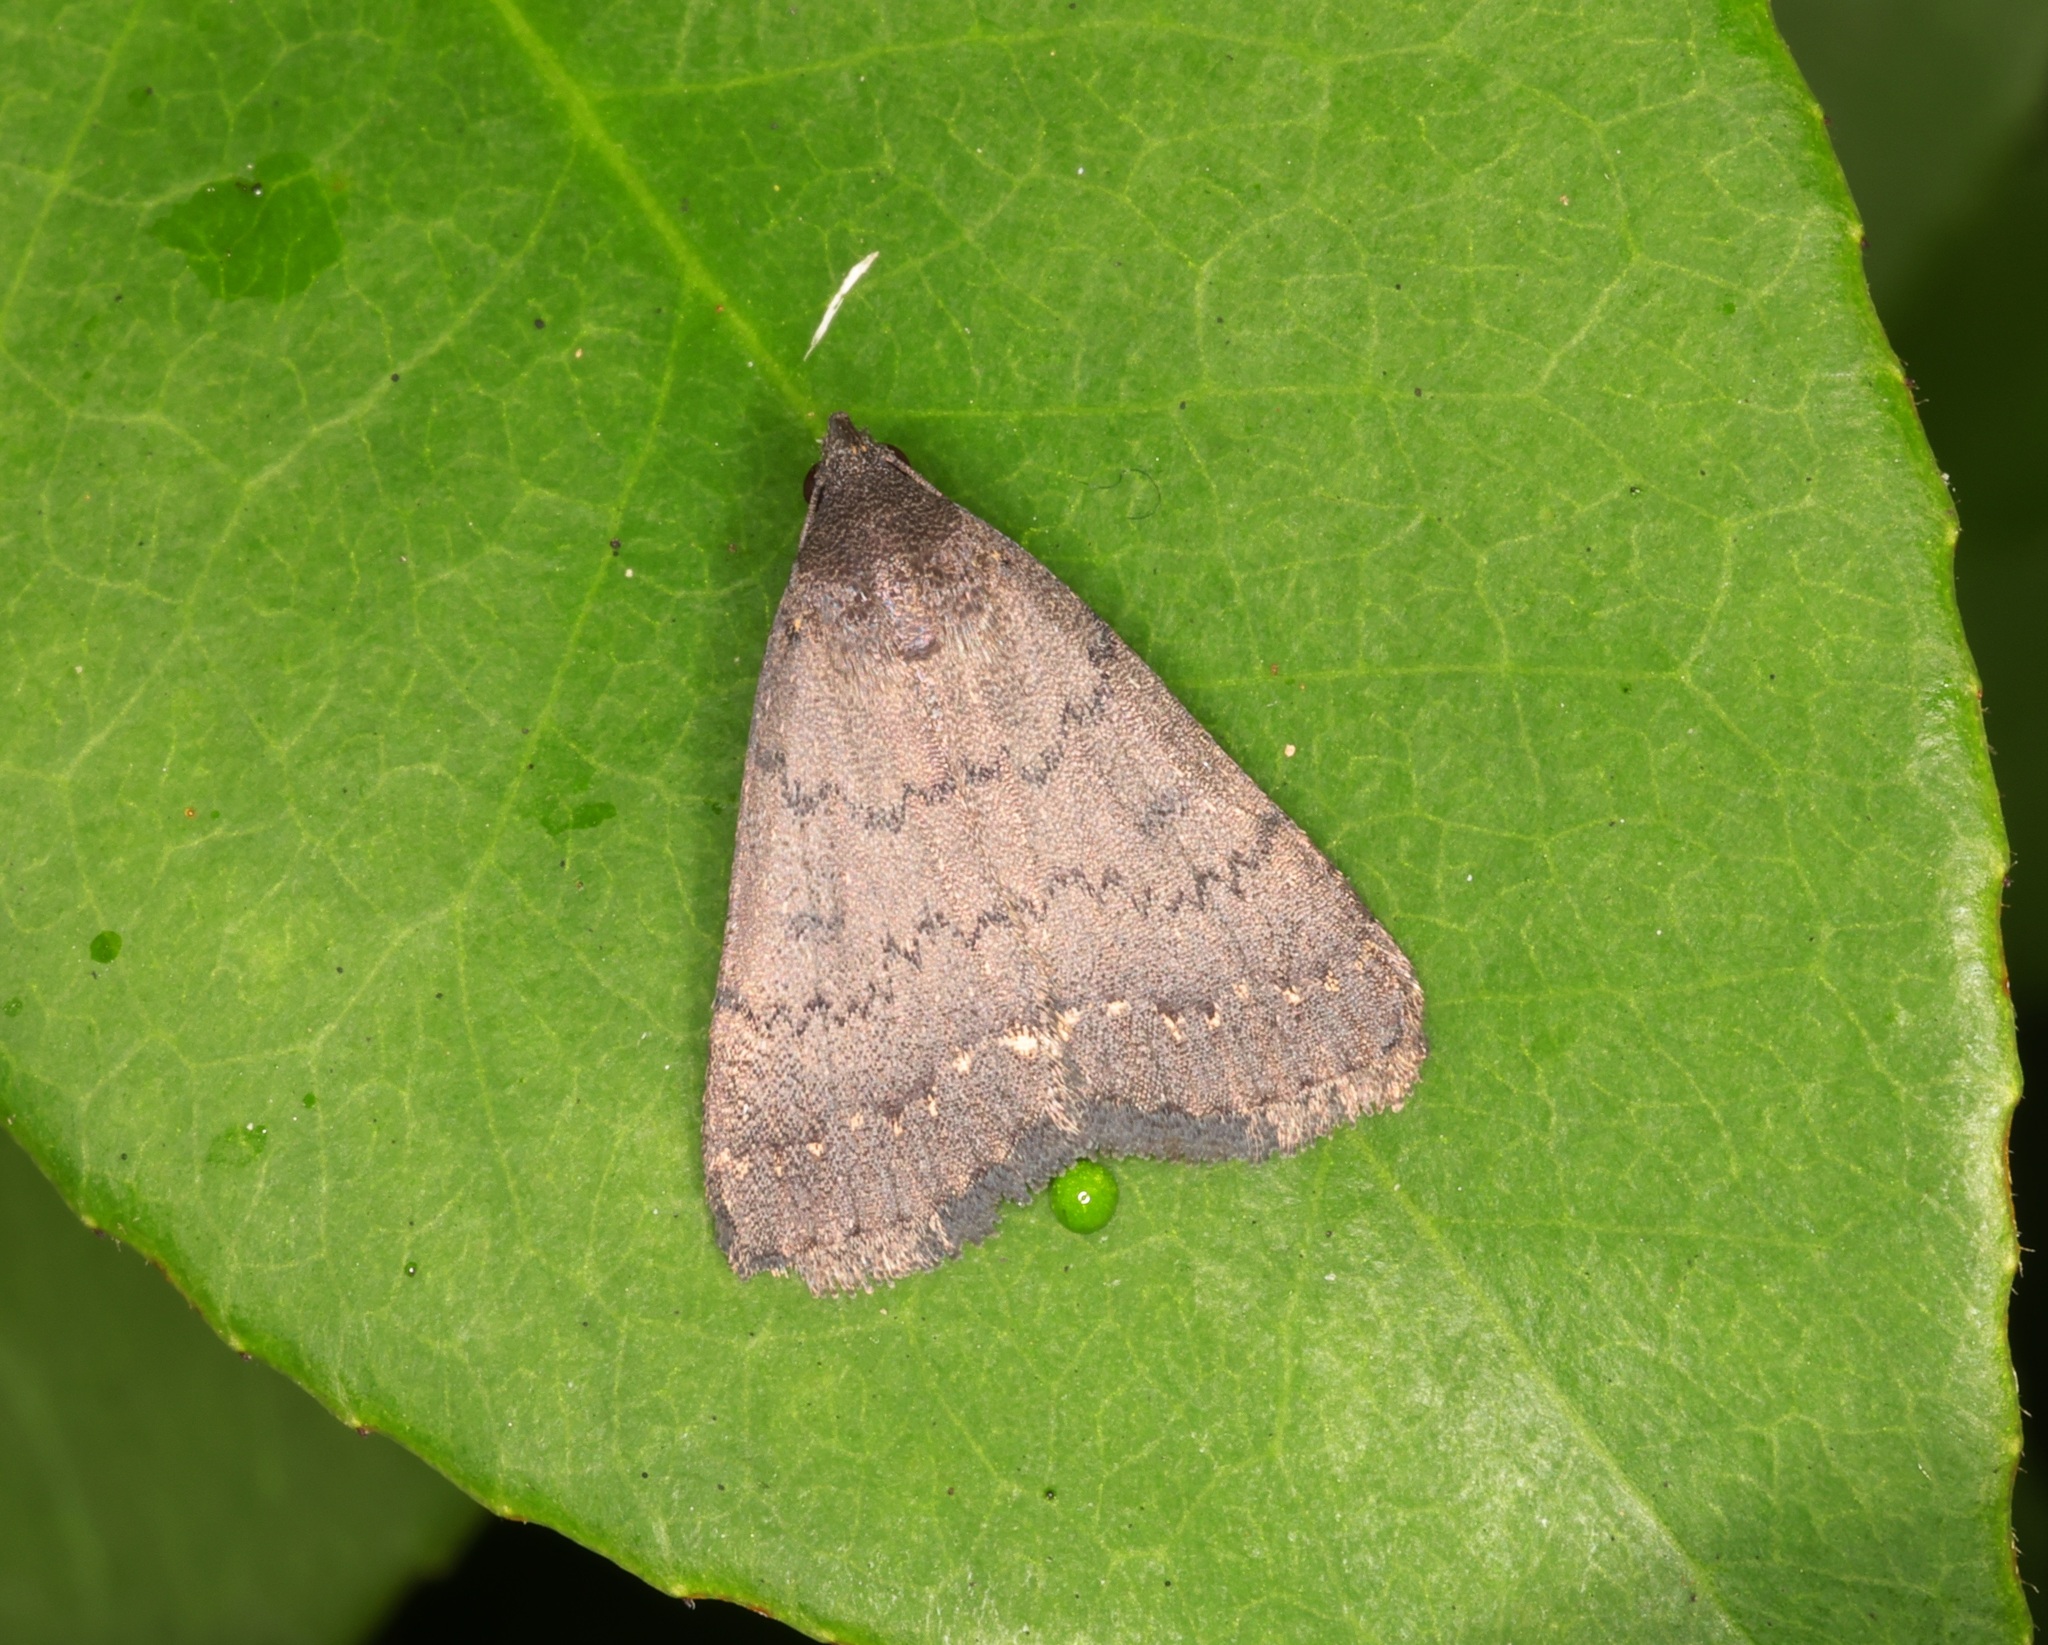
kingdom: Animalia
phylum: Arthropoda
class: Insecta
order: Lepidoptera
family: Erebidae
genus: Nodaria
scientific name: Nodaria externalis
